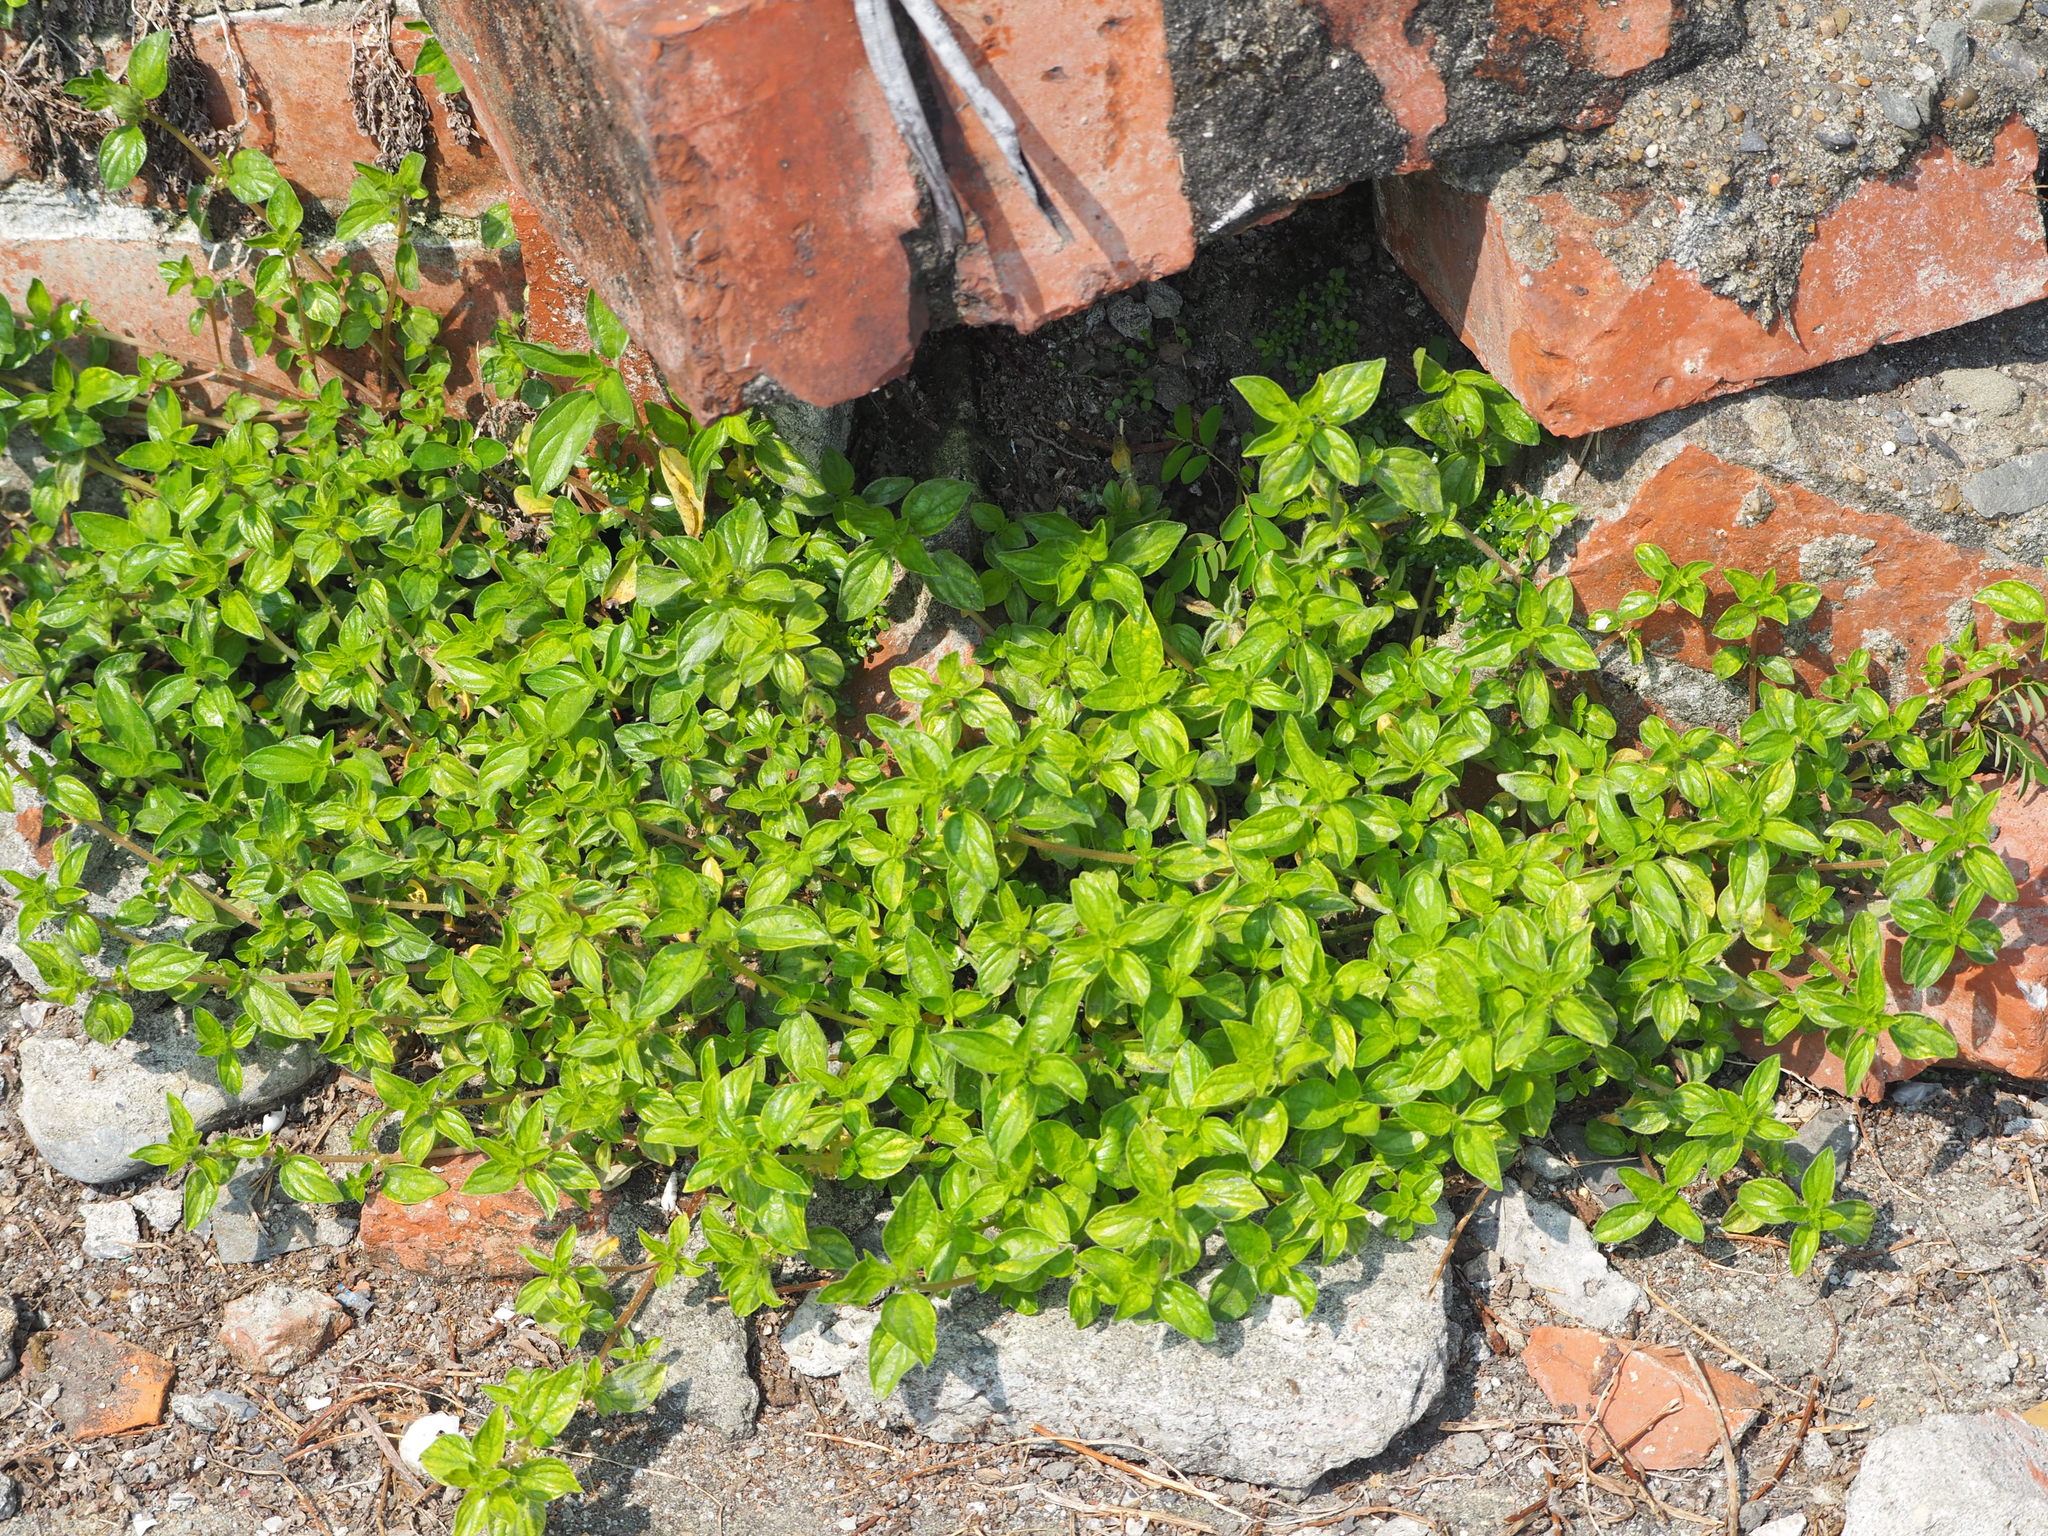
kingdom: Plantae
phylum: Tracheophyta
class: Magnoliopsida
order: Rosales
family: Urticaceae
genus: Pouzolzia
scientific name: Pouzolzia zeylanica
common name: Graceful pouzolzsbush
